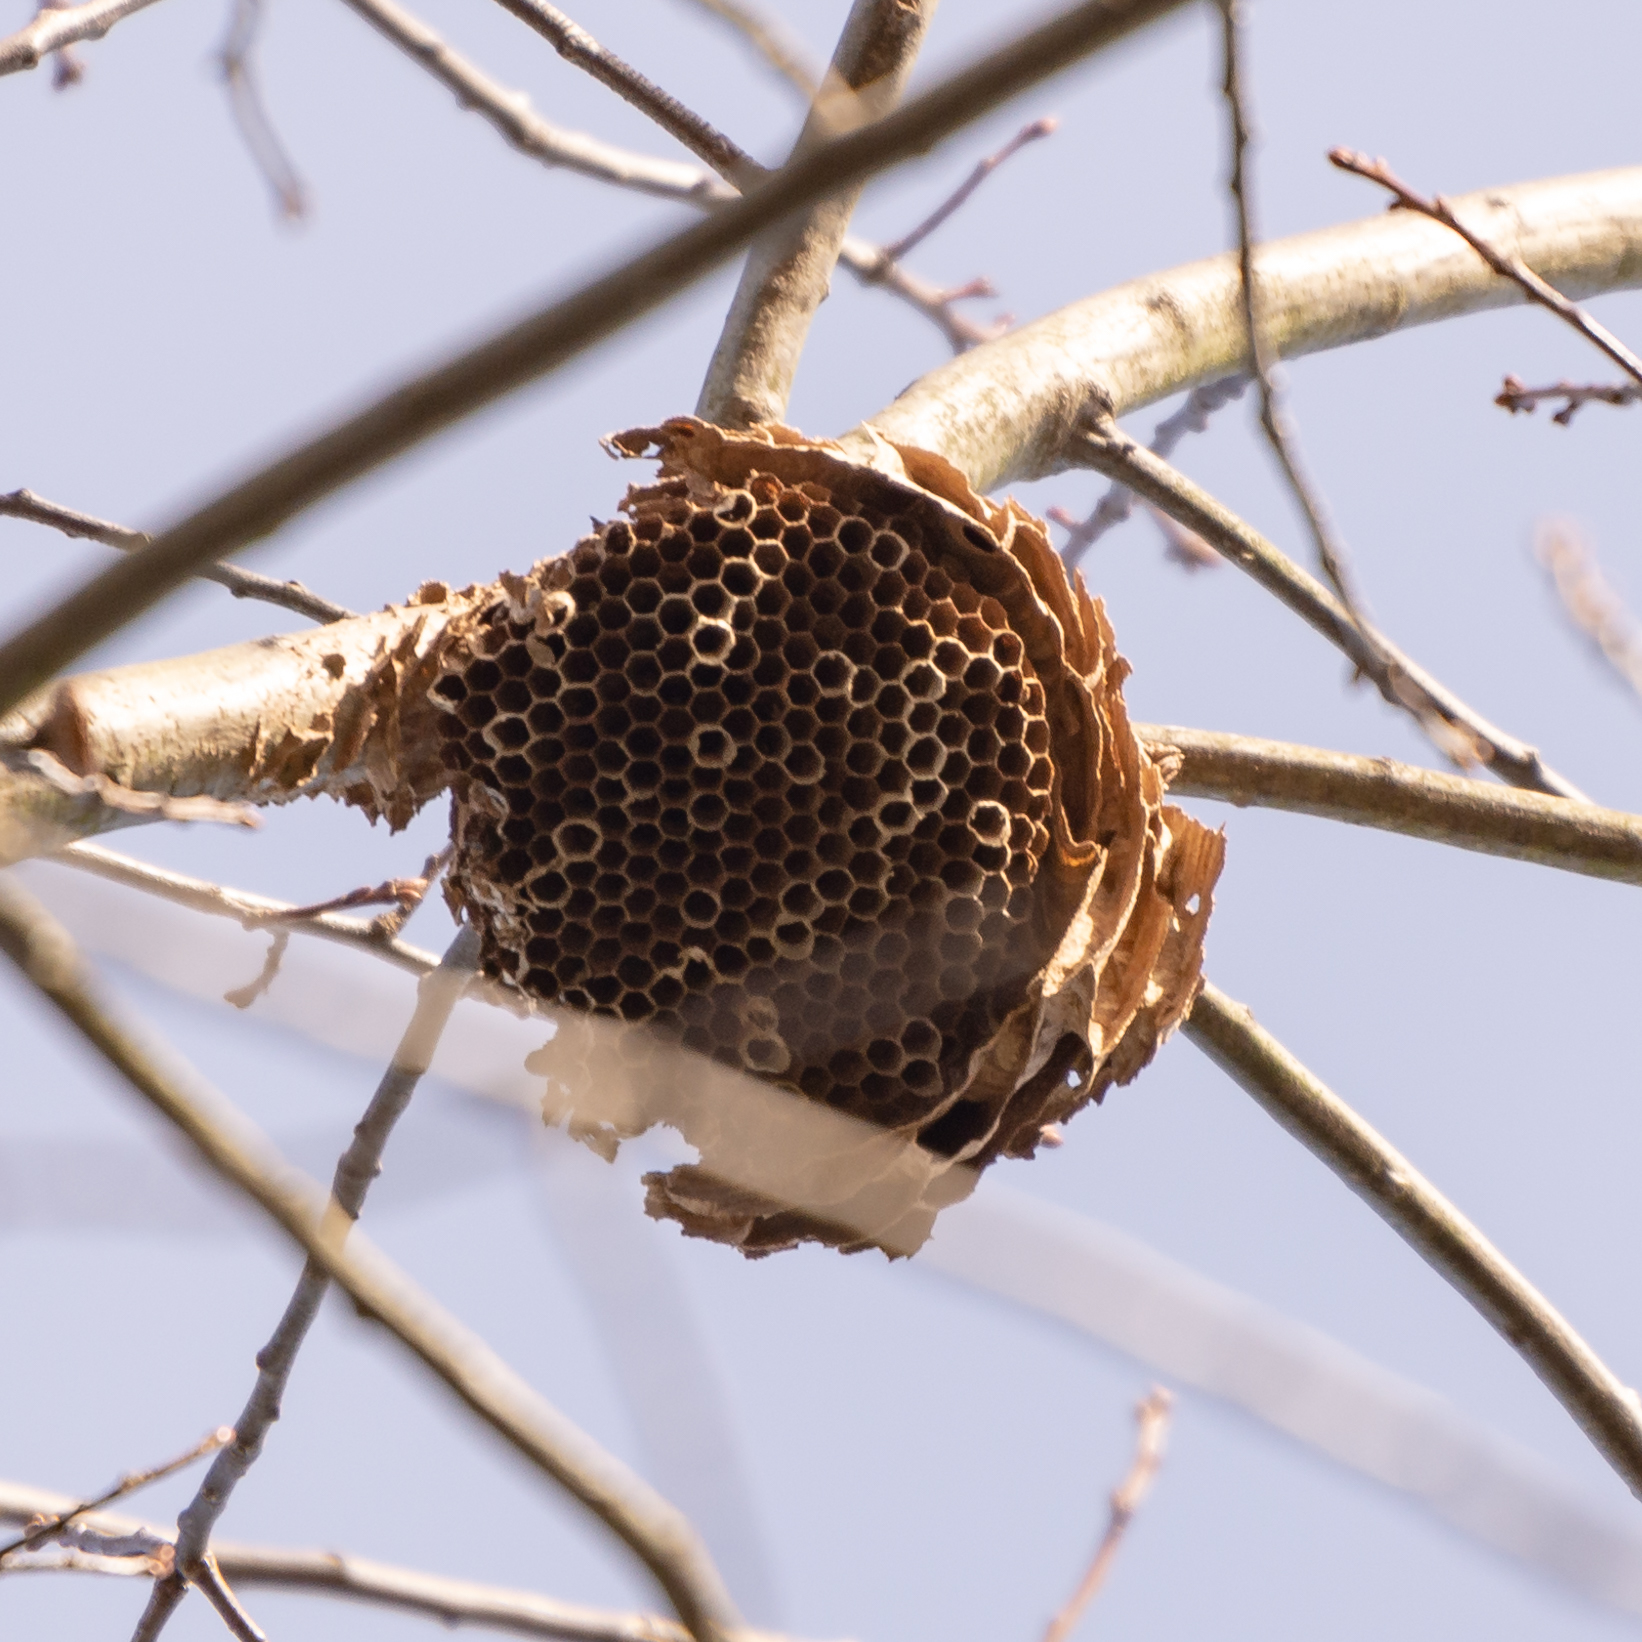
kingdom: Animalia
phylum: Arthropoda
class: Insecta
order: Hymenoptera
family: Vespidae
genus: Vespa
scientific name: Vespa velutina
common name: Asian hornet
